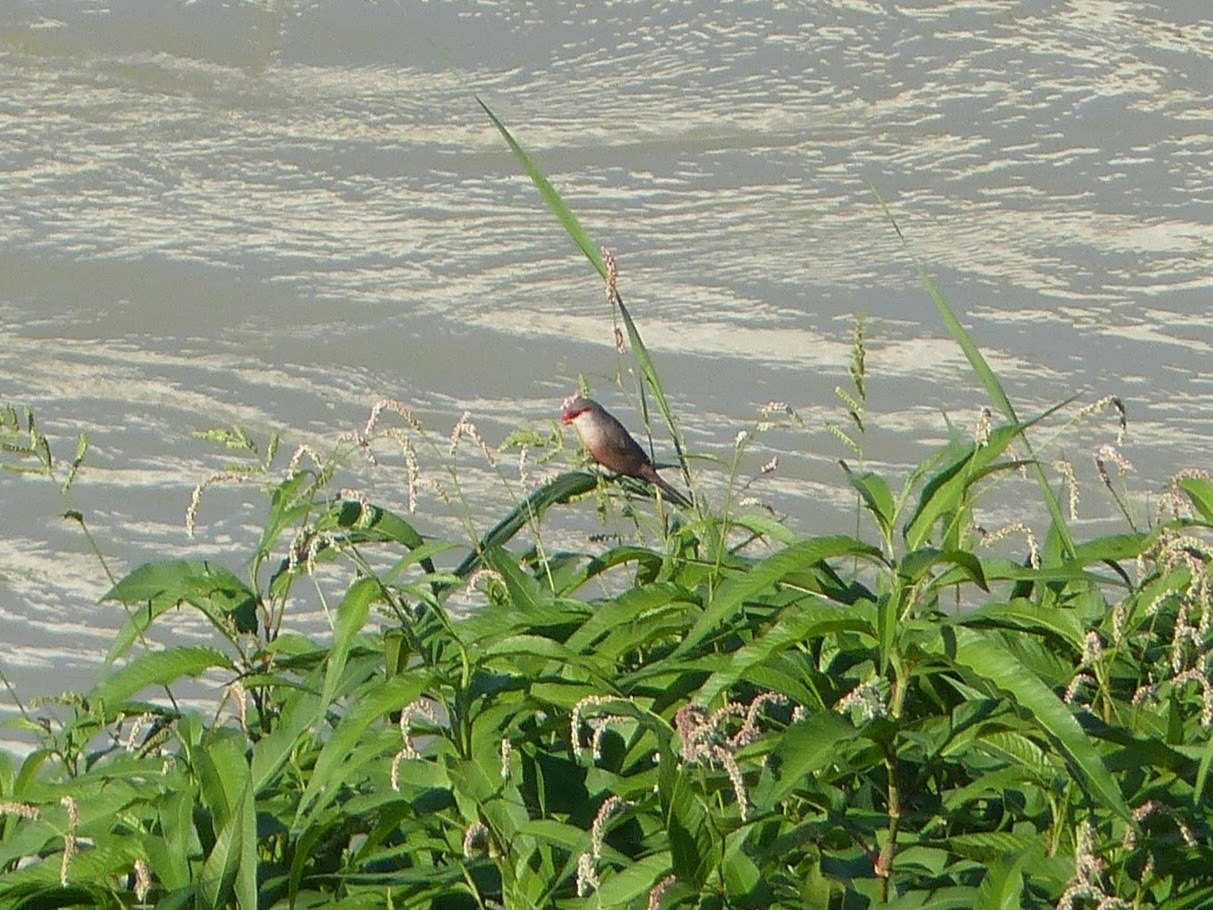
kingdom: Animalia
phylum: Chordata
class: Aves
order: Passeriformes
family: Estrildidae
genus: Estrilda
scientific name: Estrilda astrild
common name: Common waxbill
